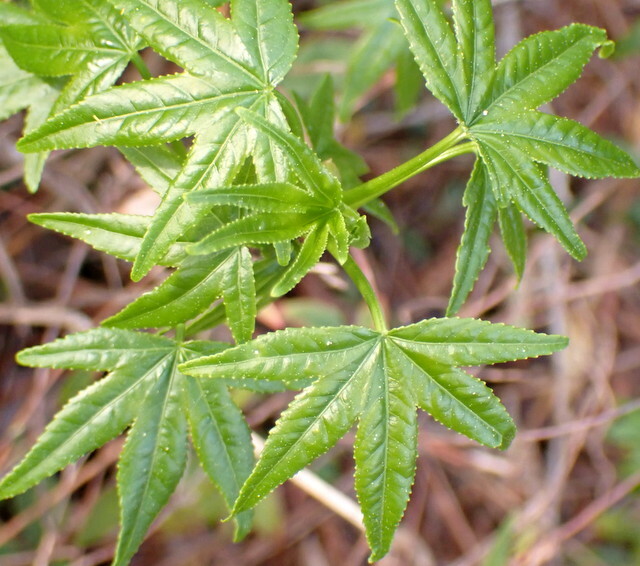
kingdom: Plantae
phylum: Tracheophyta
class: Magnoliopsida
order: Saxifragales
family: Altingiaceae
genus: Liquidambar
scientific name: Liquidambar styraciflua
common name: Sweet gum
